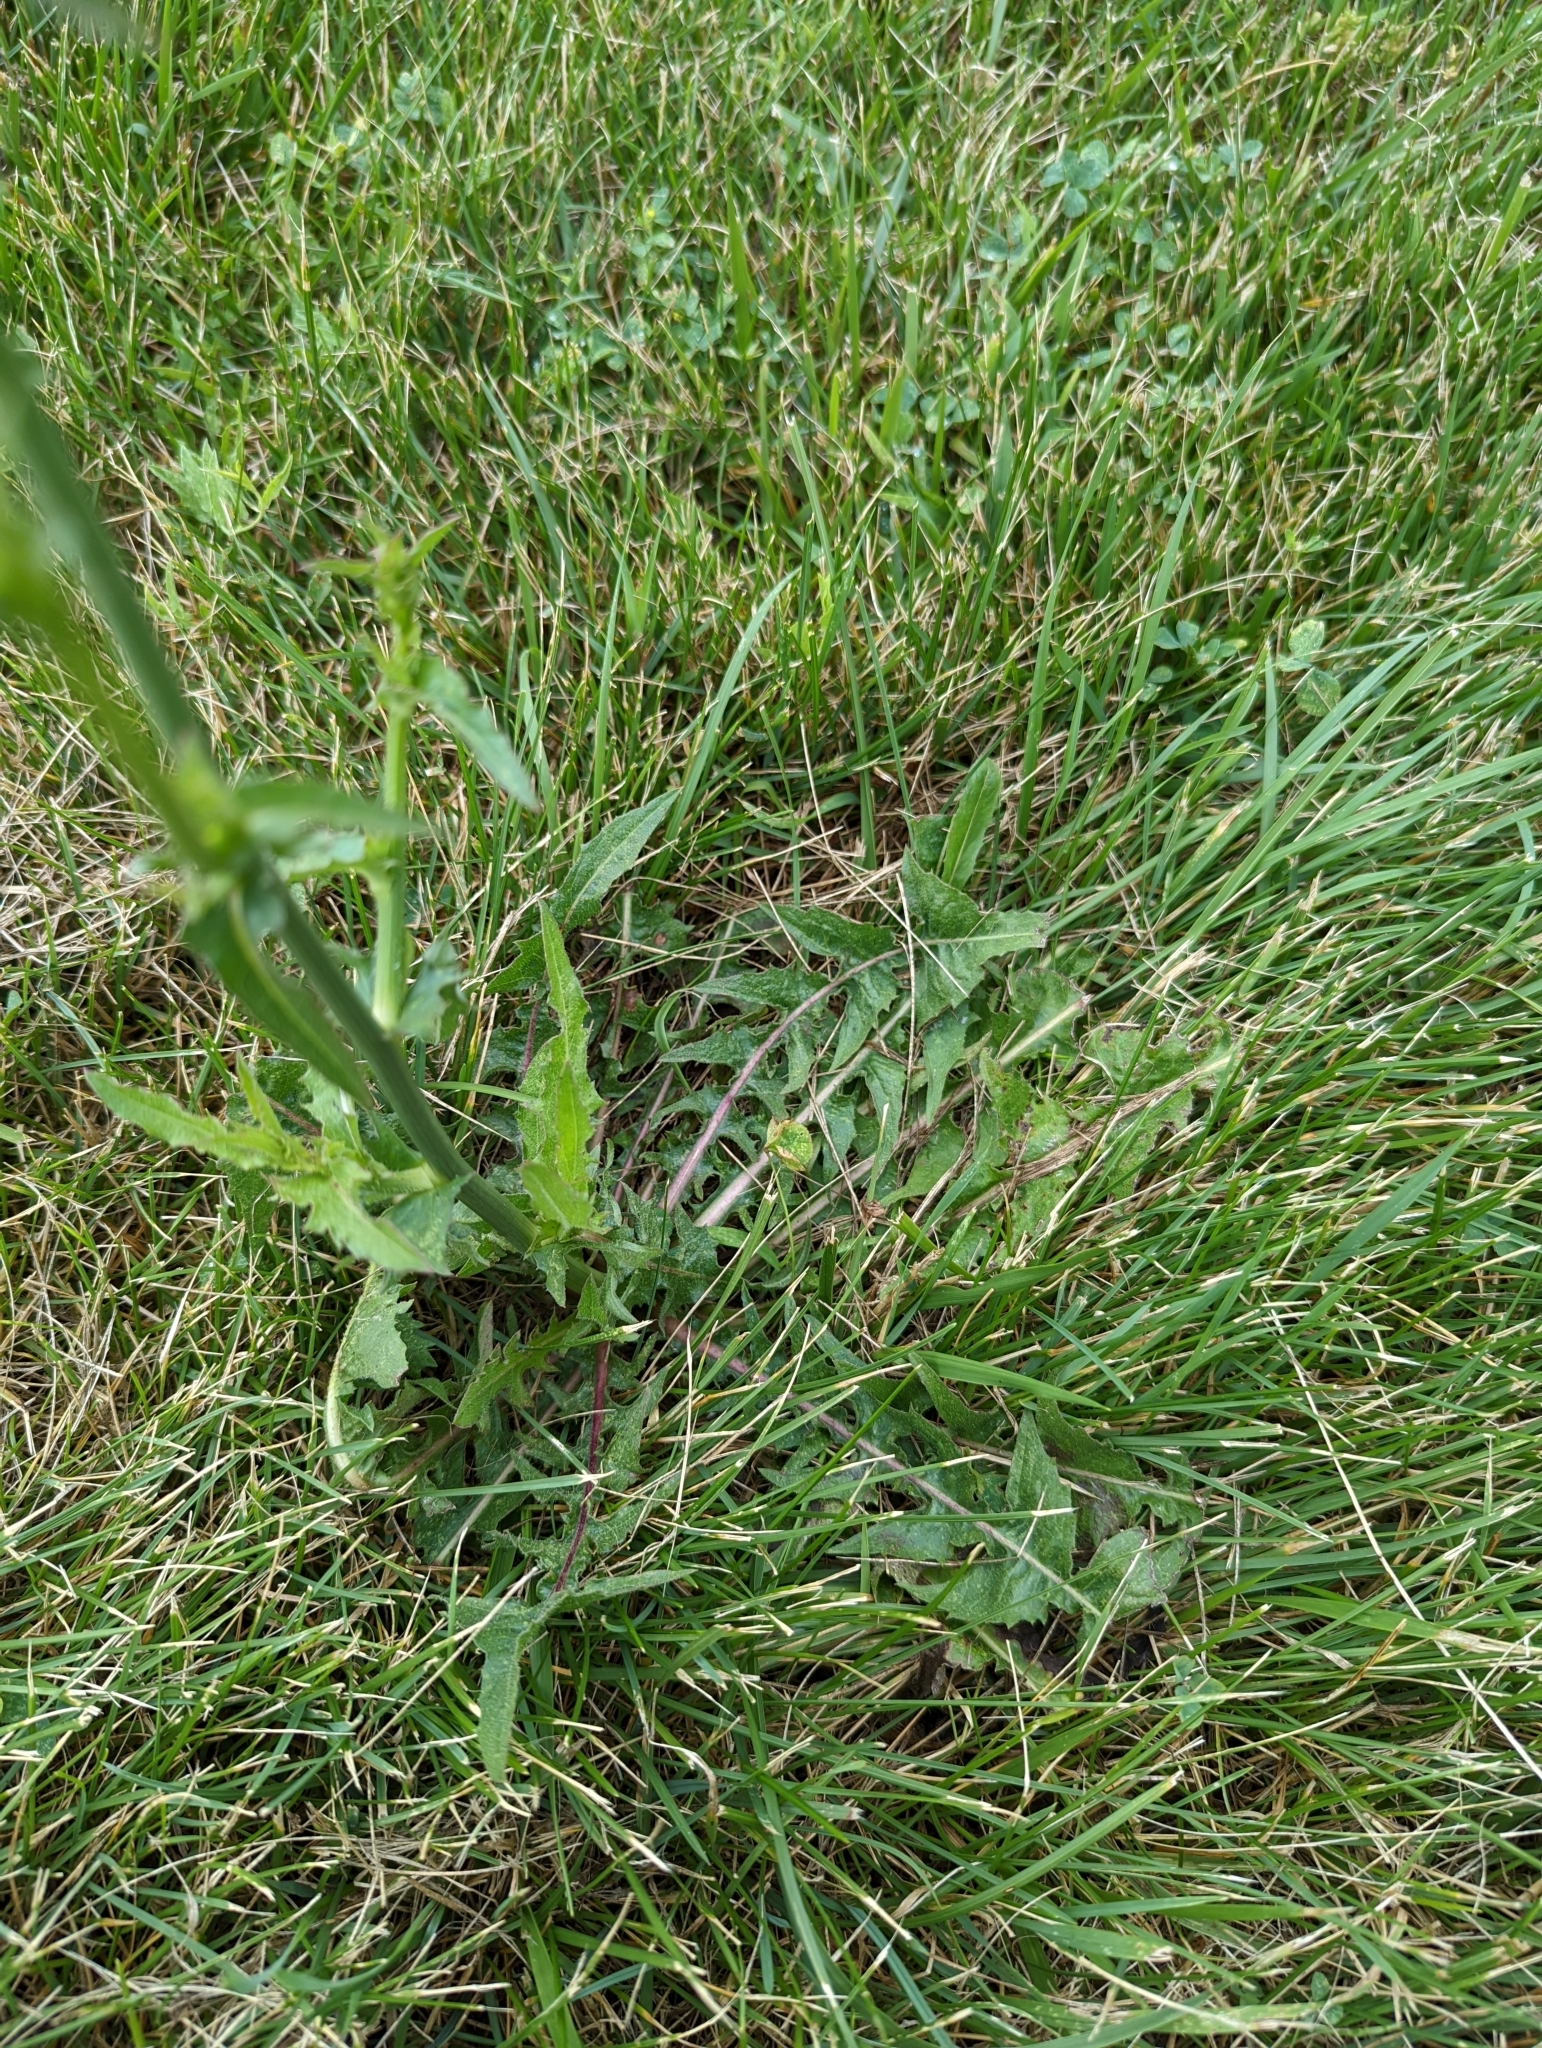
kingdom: Plantae
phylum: Tracheophyta
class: Magnoliopsida
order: Asterales
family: Asteraceae
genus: Cichorium
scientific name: Cichorium intybus
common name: Chicory
